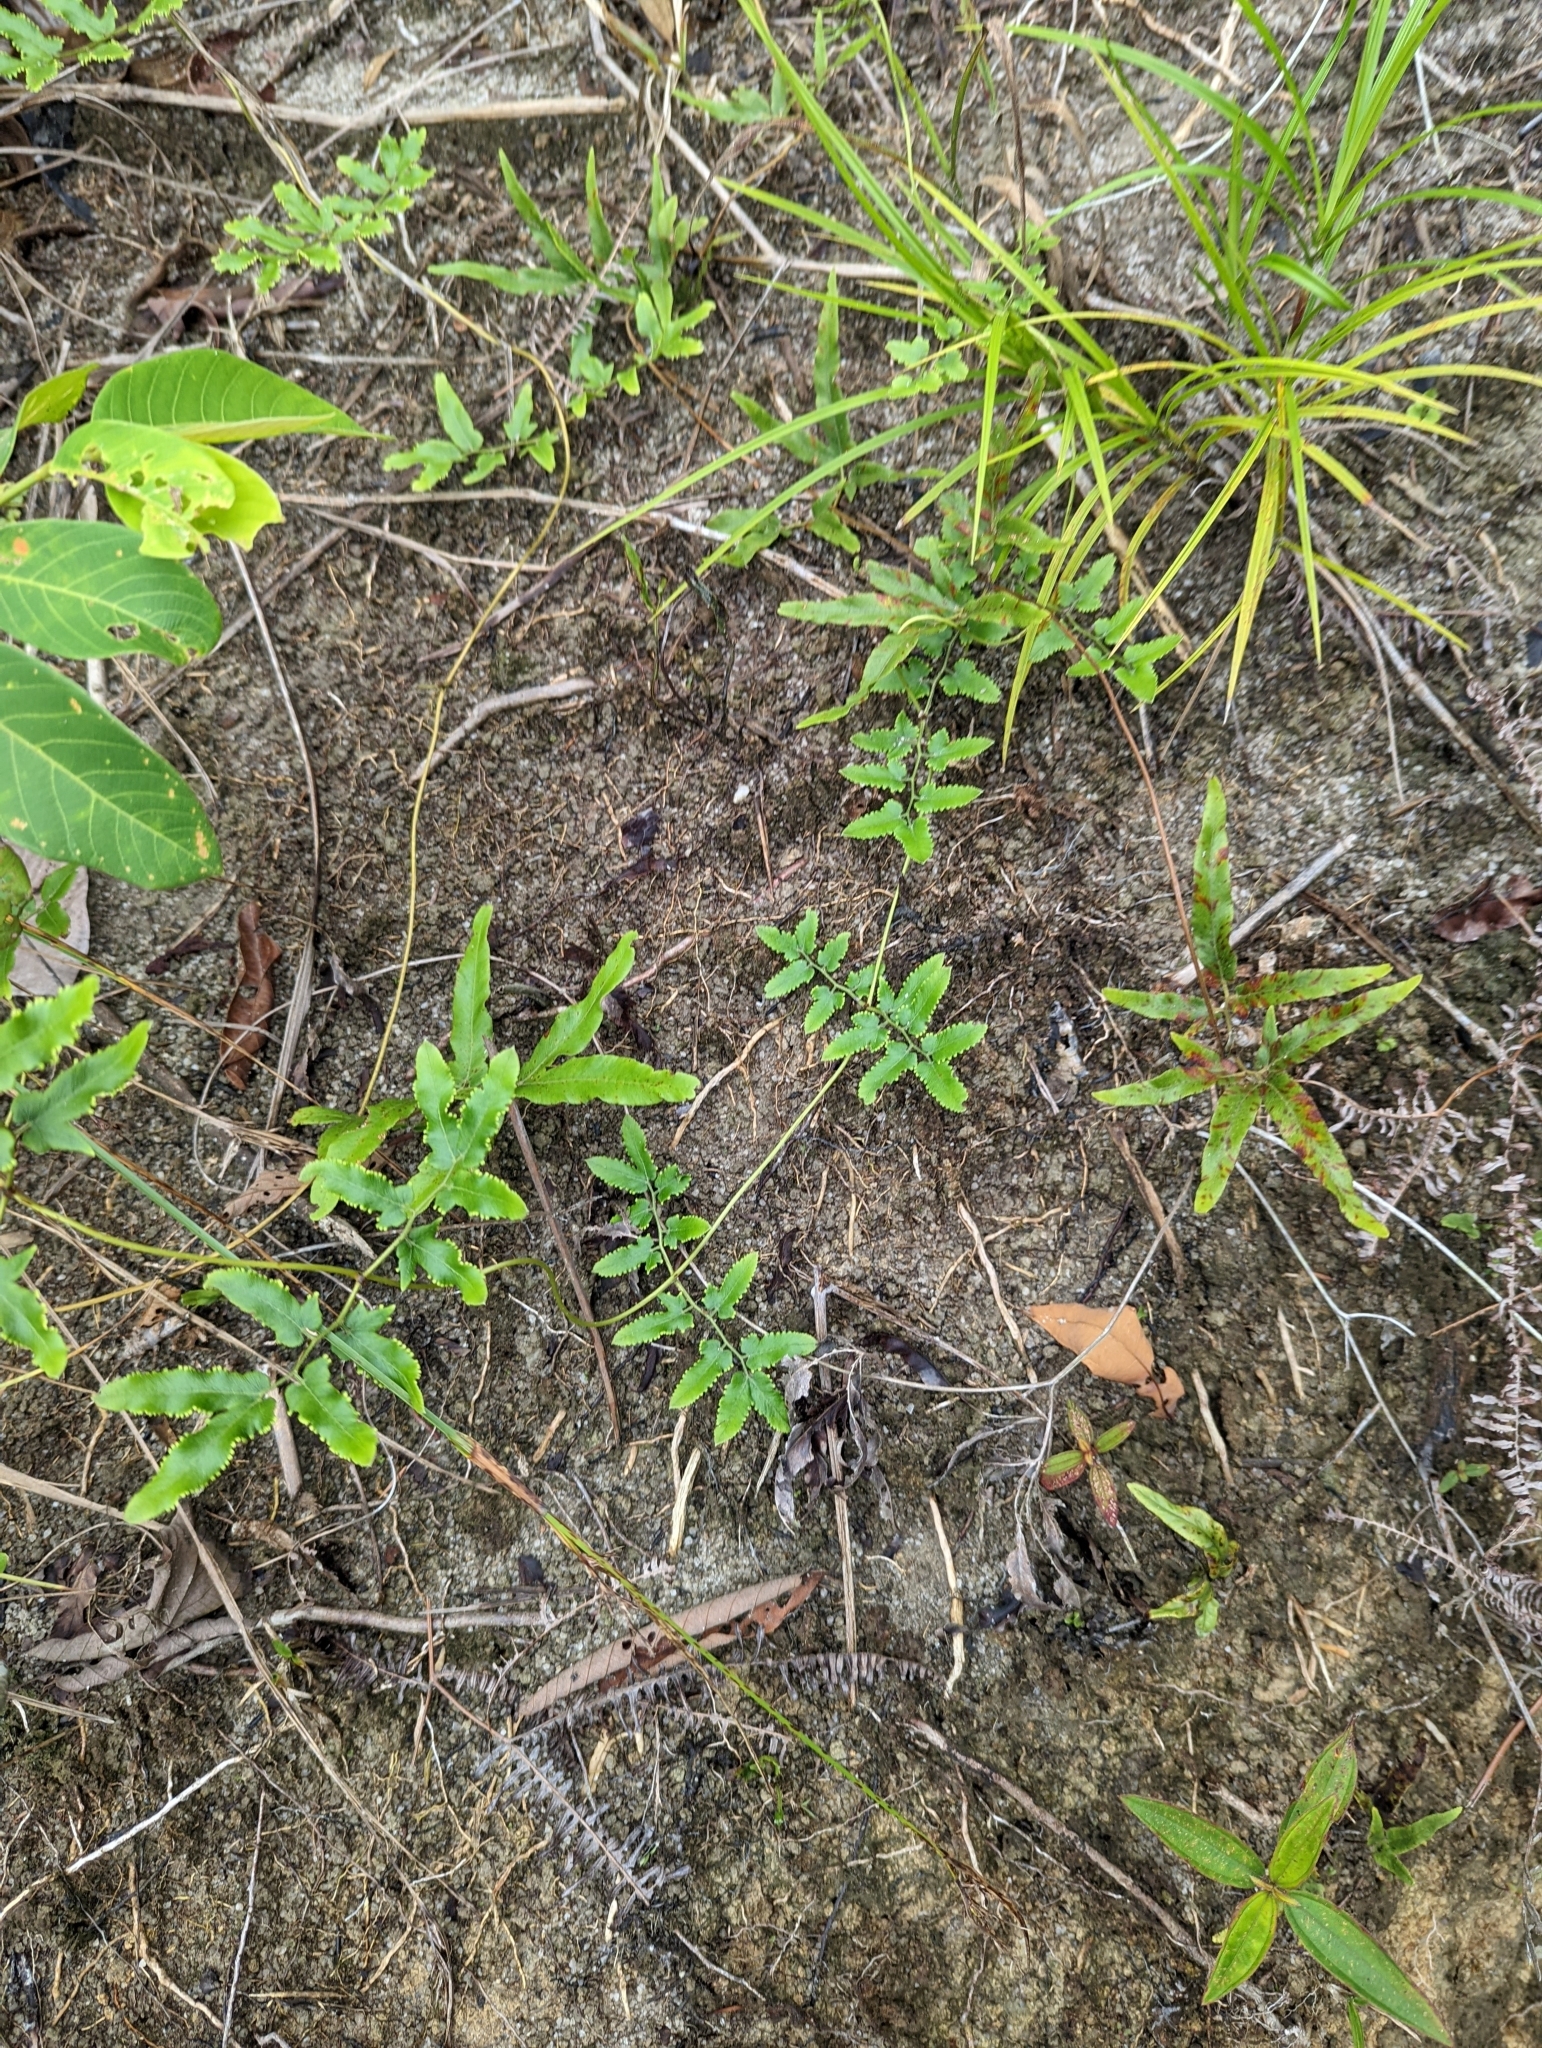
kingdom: Plantae
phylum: Tracheophyta
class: Polypodiopsida
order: Schizaeales
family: Lygodiaceae
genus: Lygodium
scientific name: Lygodium flexuosum
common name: Maidenhair creeper
